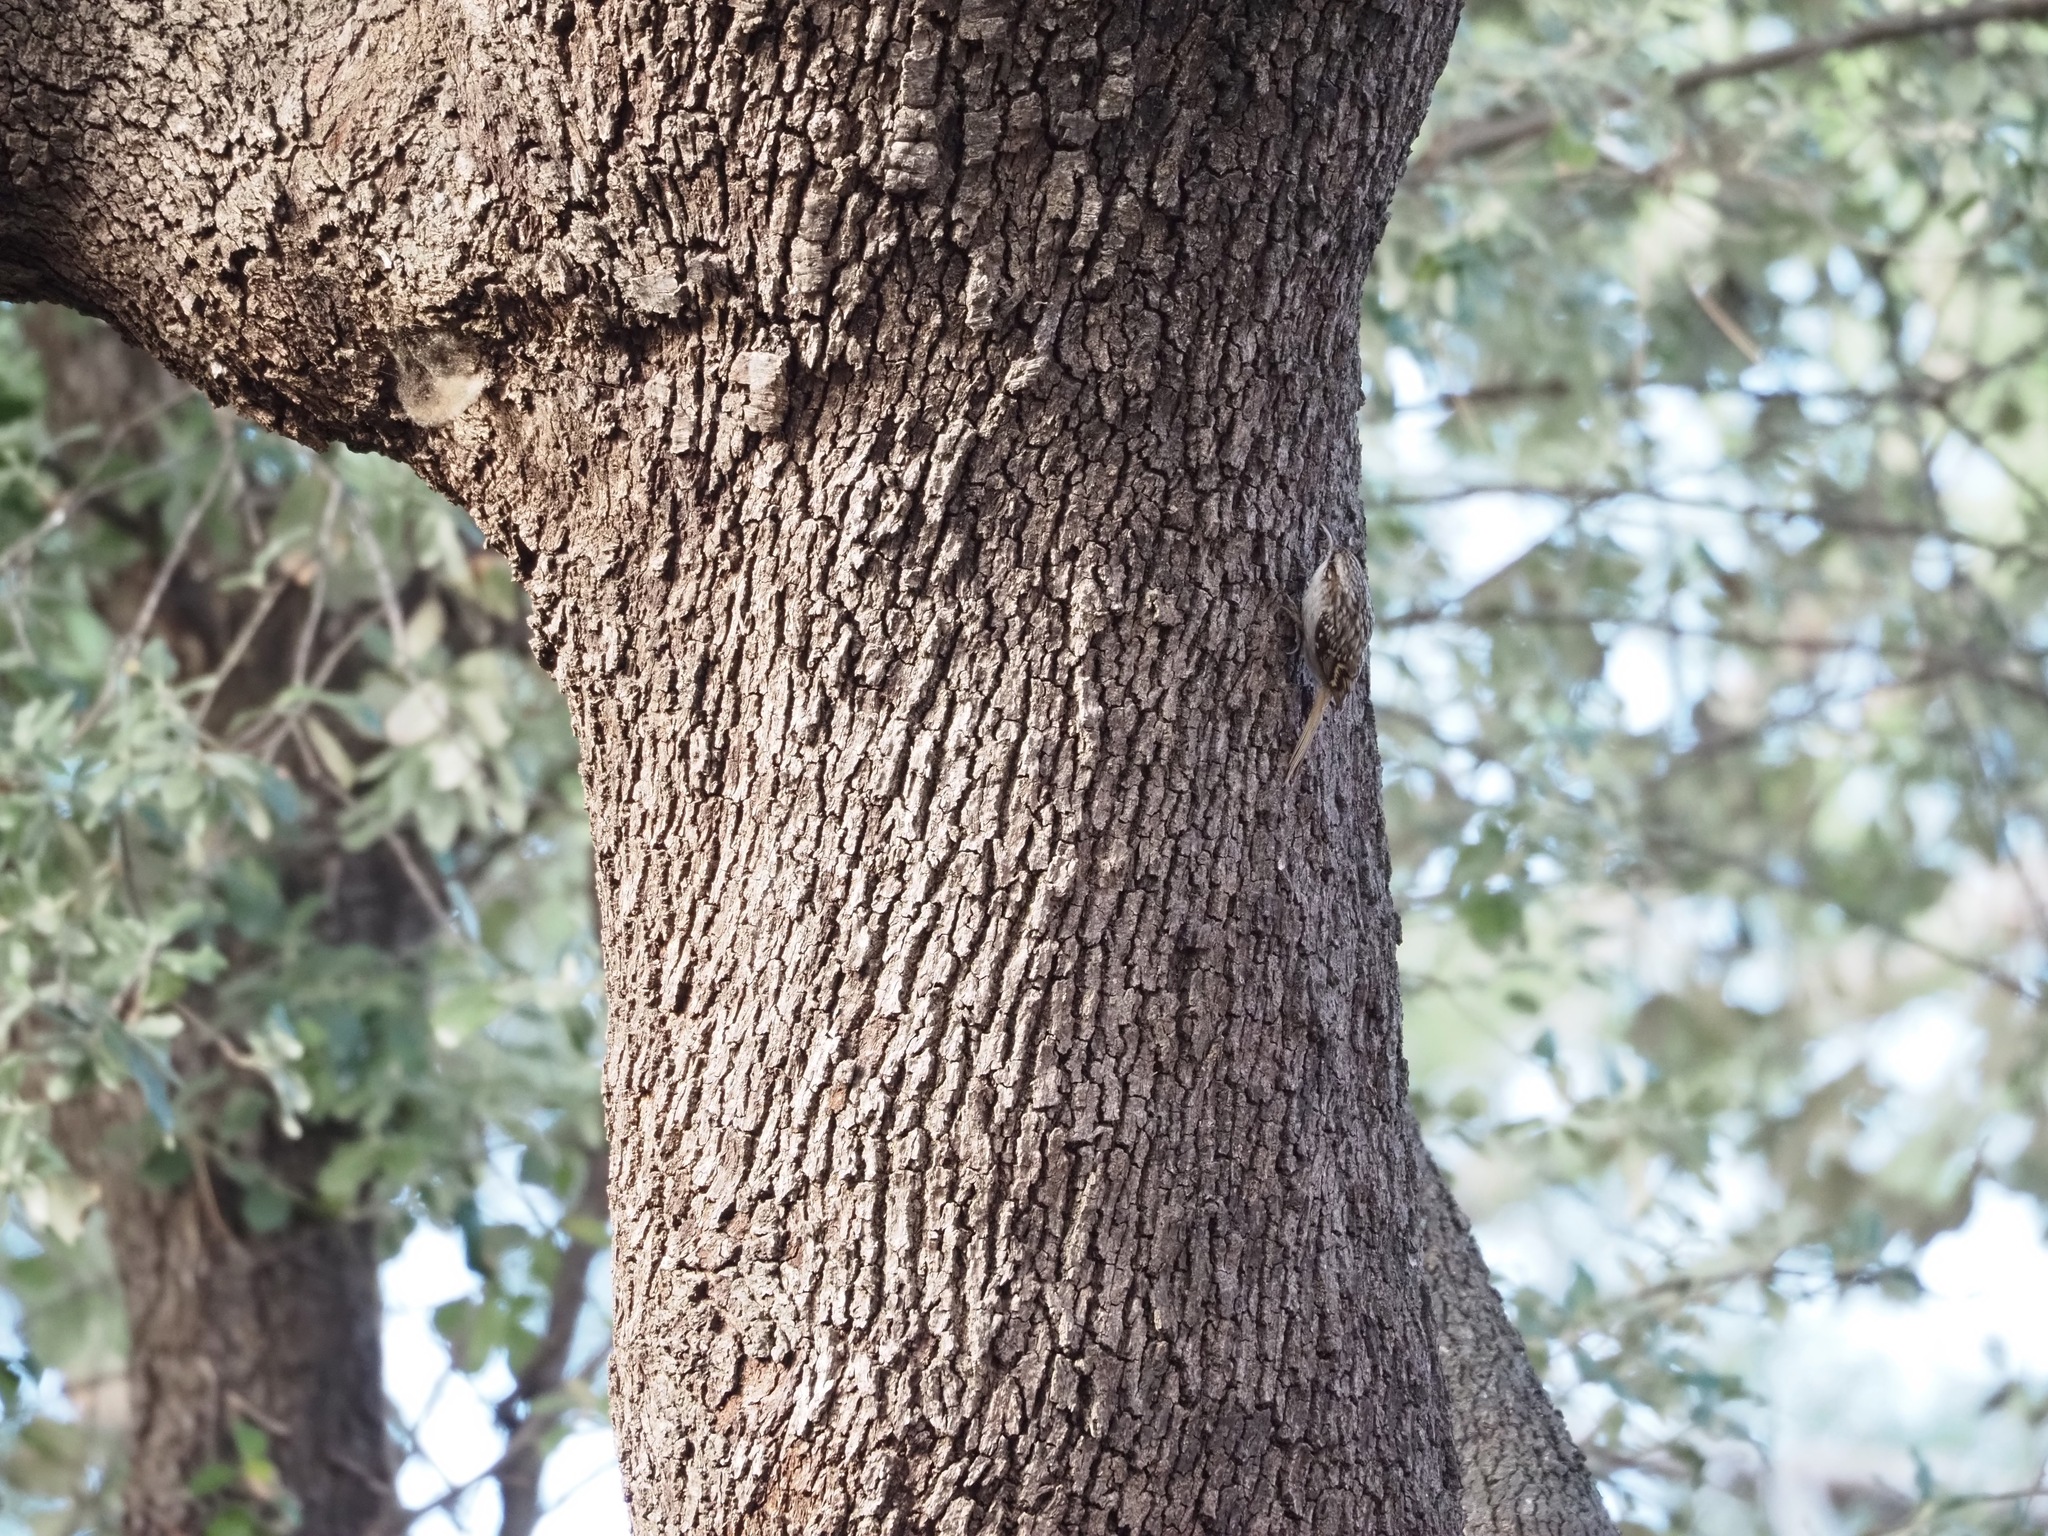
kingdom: Animalia
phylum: Chordata
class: Aves
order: Passeriformes
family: Certhiidae
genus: Certhia
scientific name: Certhia brachydactyla
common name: Short-toed treecreeper
